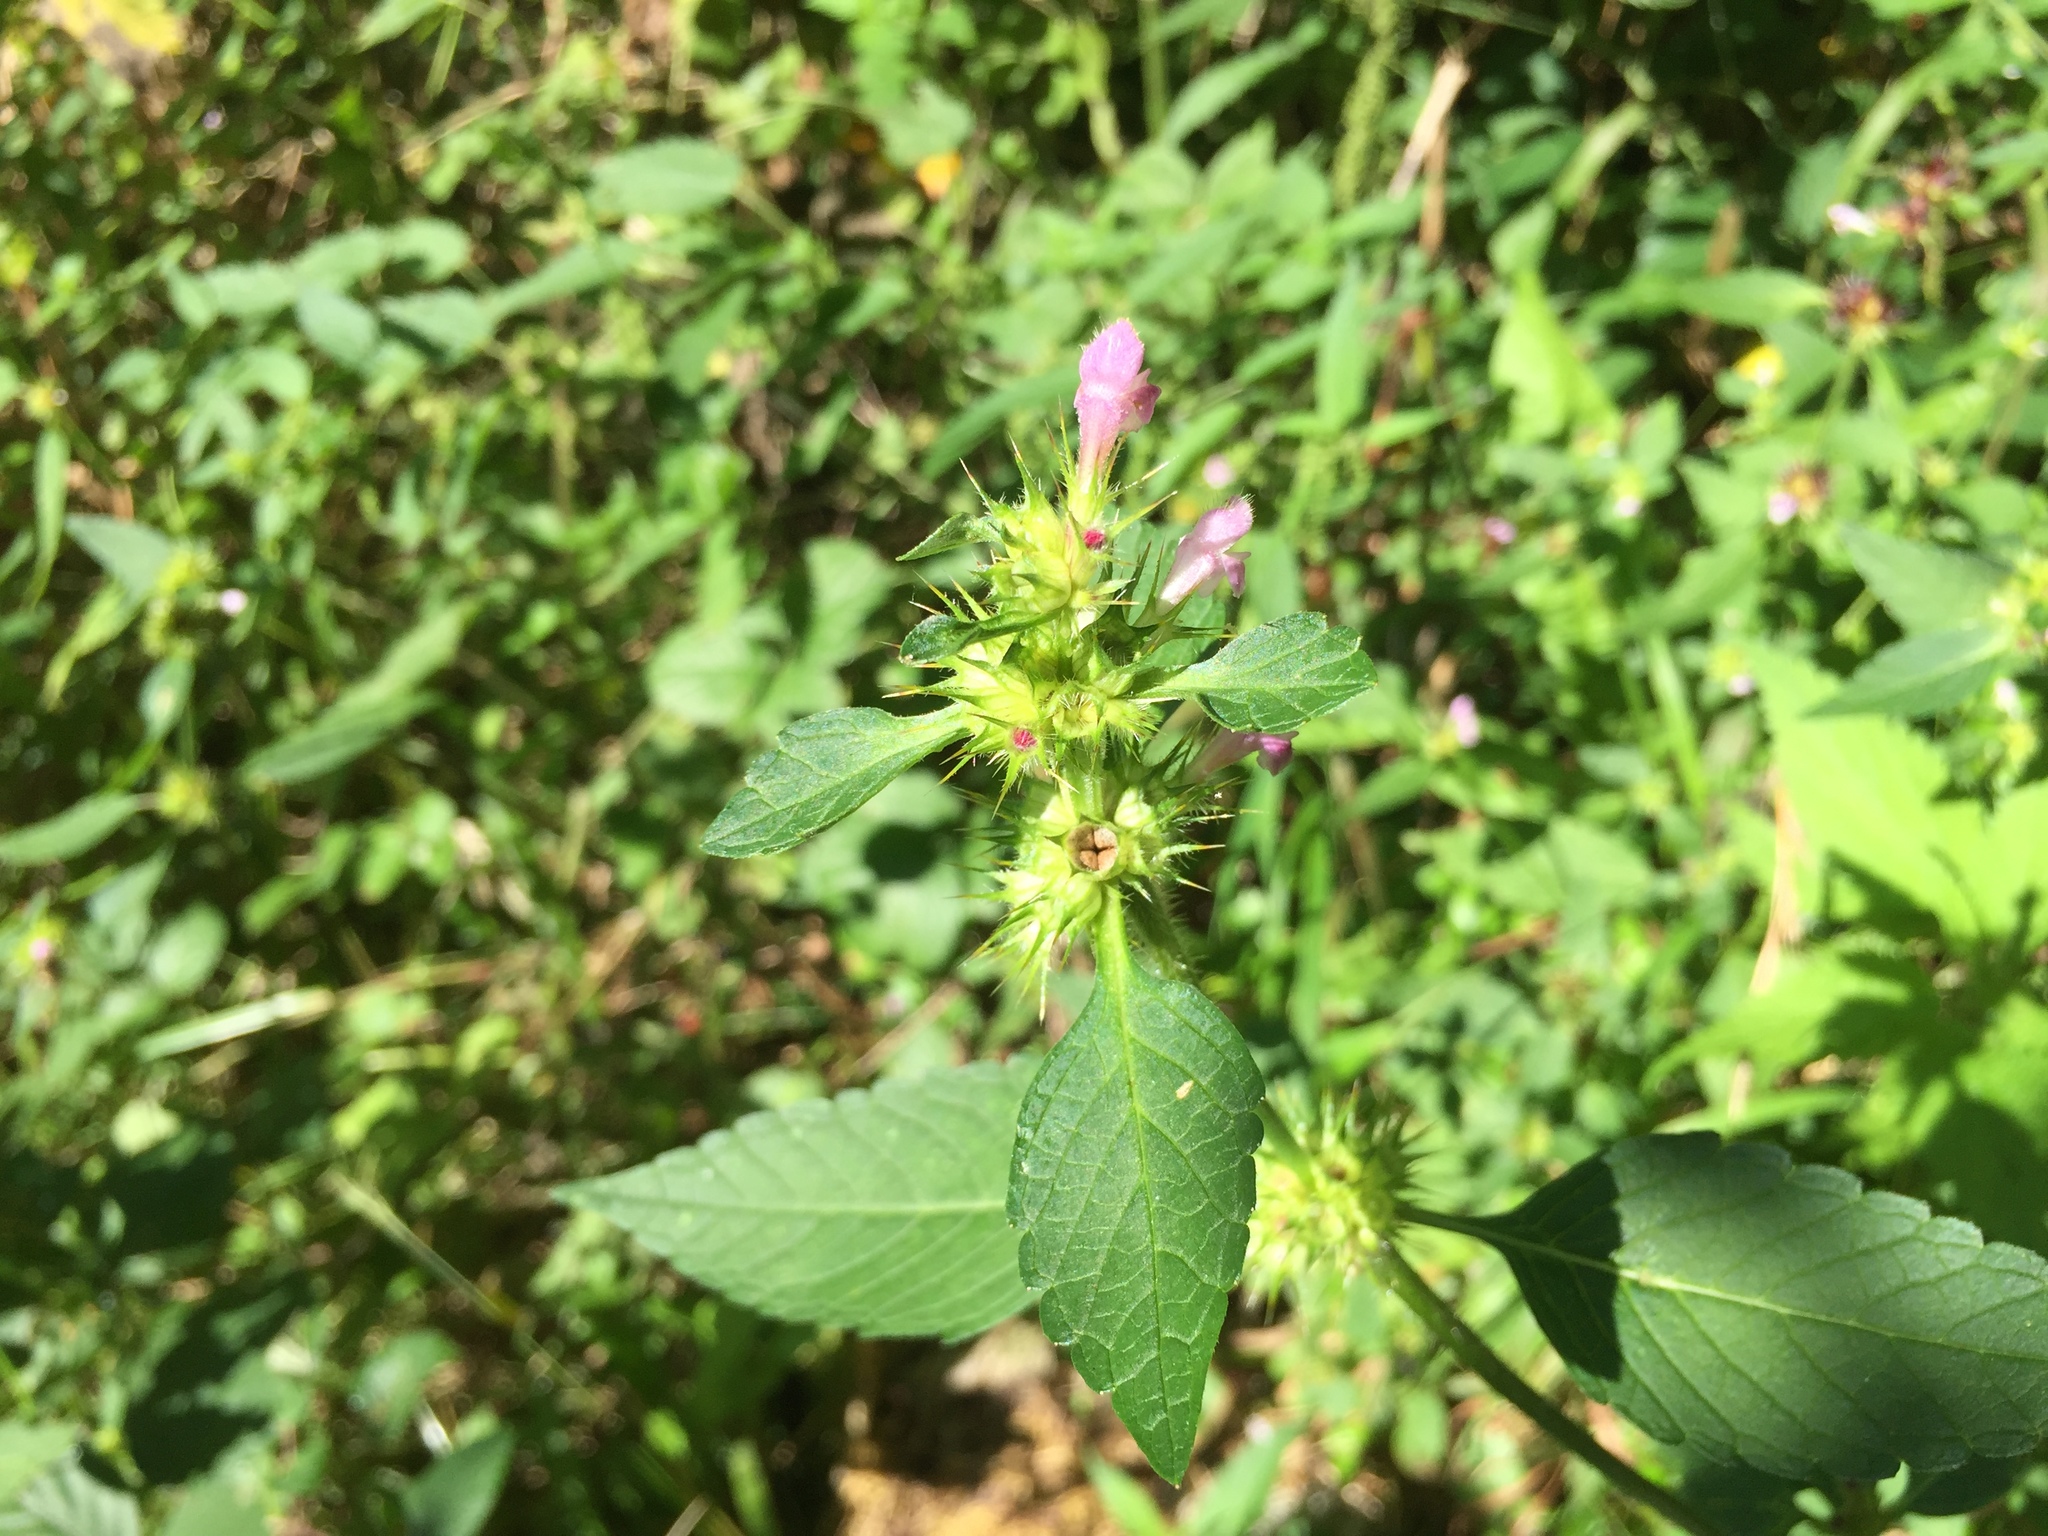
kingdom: Plantae
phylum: Tracheophyta
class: Magnoliopsida
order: Lamiales
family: Lamiaceae
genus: Galeopsis
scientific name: Galeopsis tetrahit
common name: Common hemp-nettle
